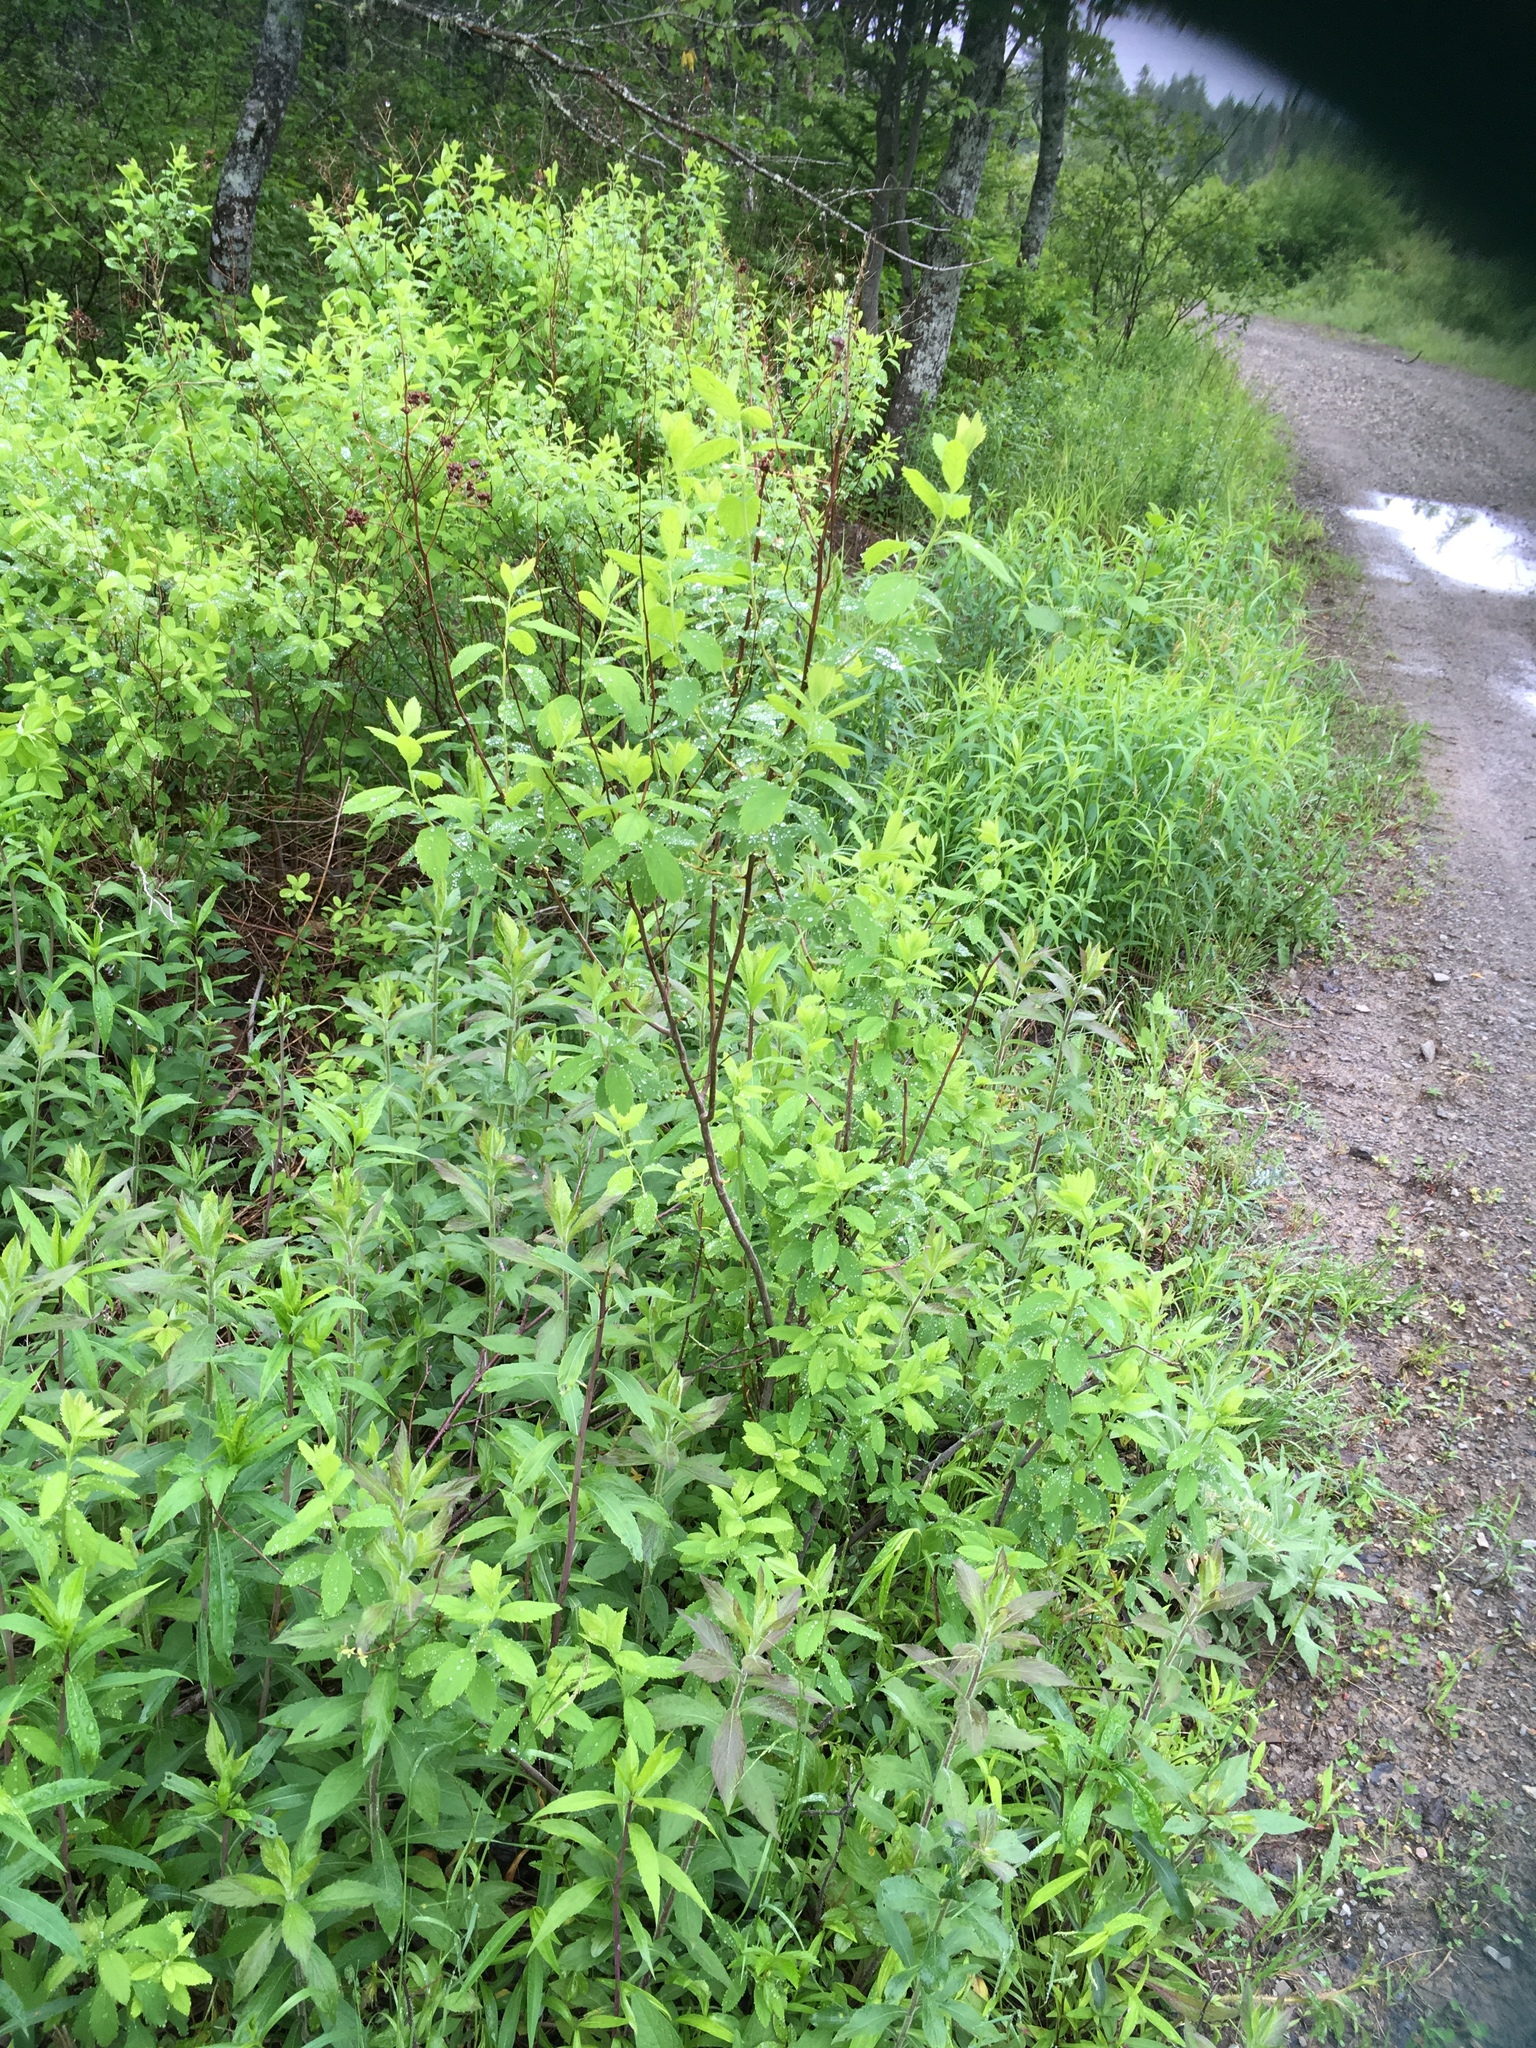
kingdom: Plantae
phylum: Tracheophyta
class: Magnoliopsida
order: Rosales
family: Rosaceae
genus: Spiraea
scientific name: Spiraea alba
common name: Pale bridewort
